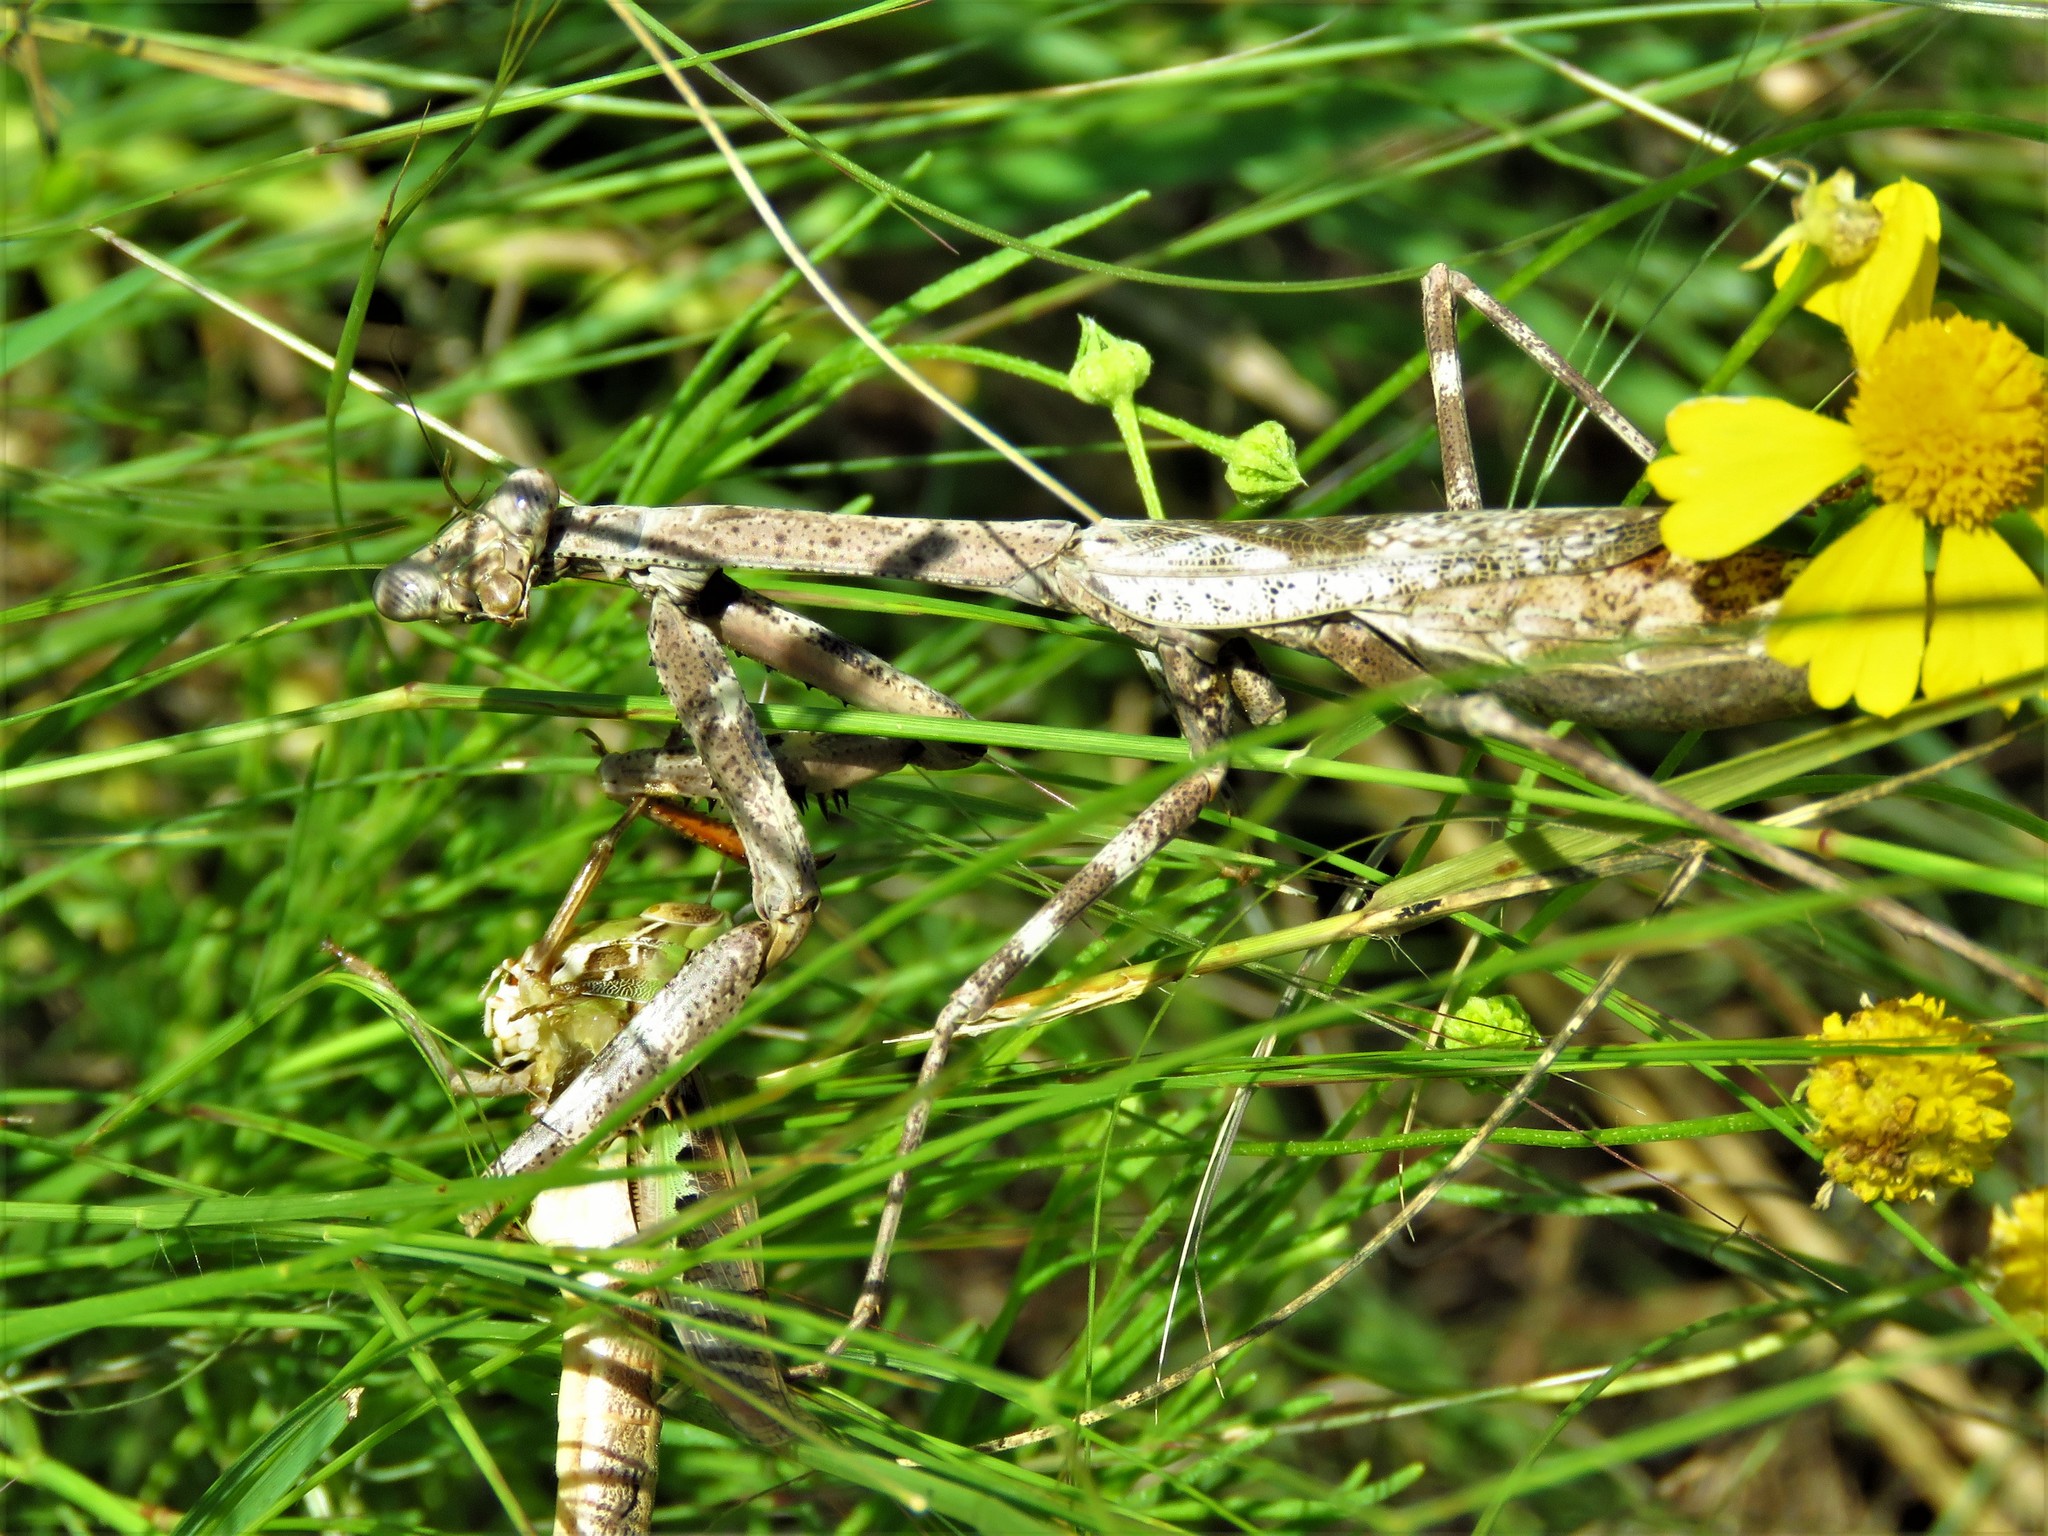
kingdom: Animalia
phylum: Arthropoda
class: Insecta
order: Mantodea
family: Mantidae
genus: Stagmomantis
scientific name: Stagmomantis carolina
